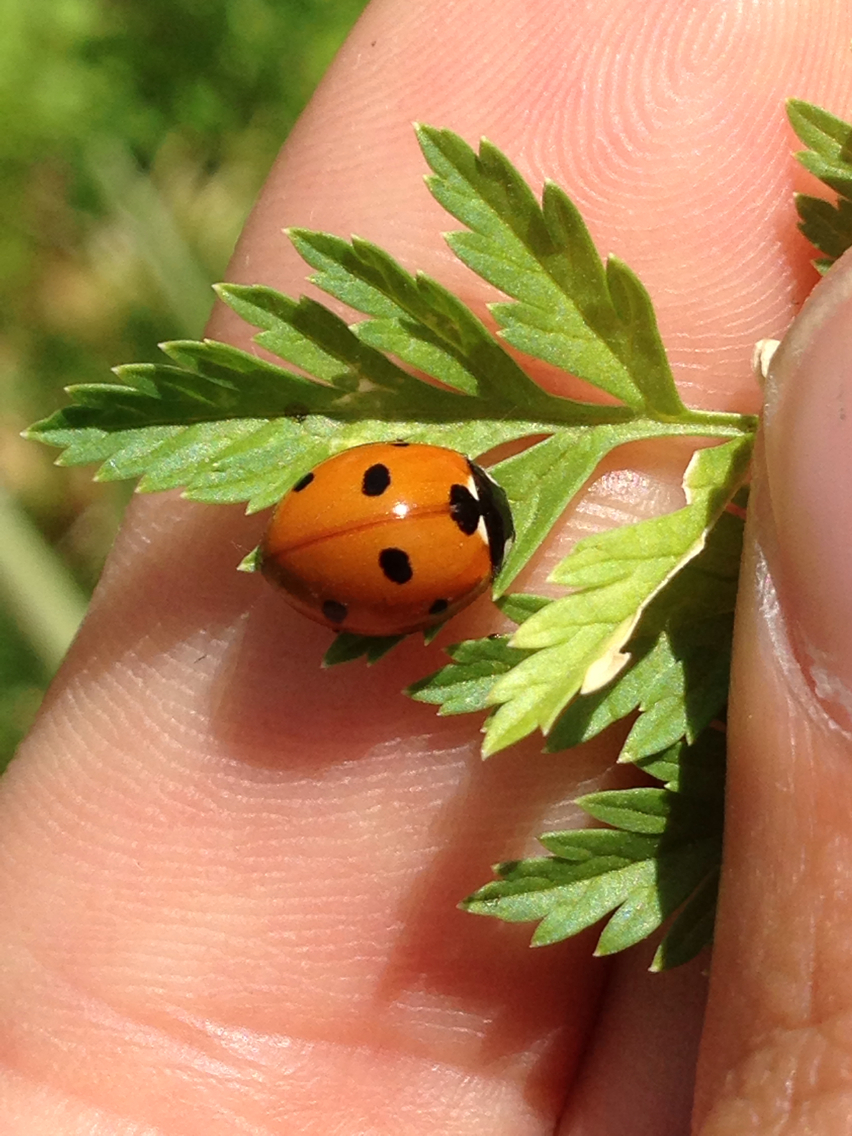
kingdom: Animalia
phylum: Arthropoda
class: Insecta
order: Coleoptera
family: Coccinellidae
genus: Coccinella
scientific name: Coccinella septempunctata
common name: Sevenspotted lady beetle
